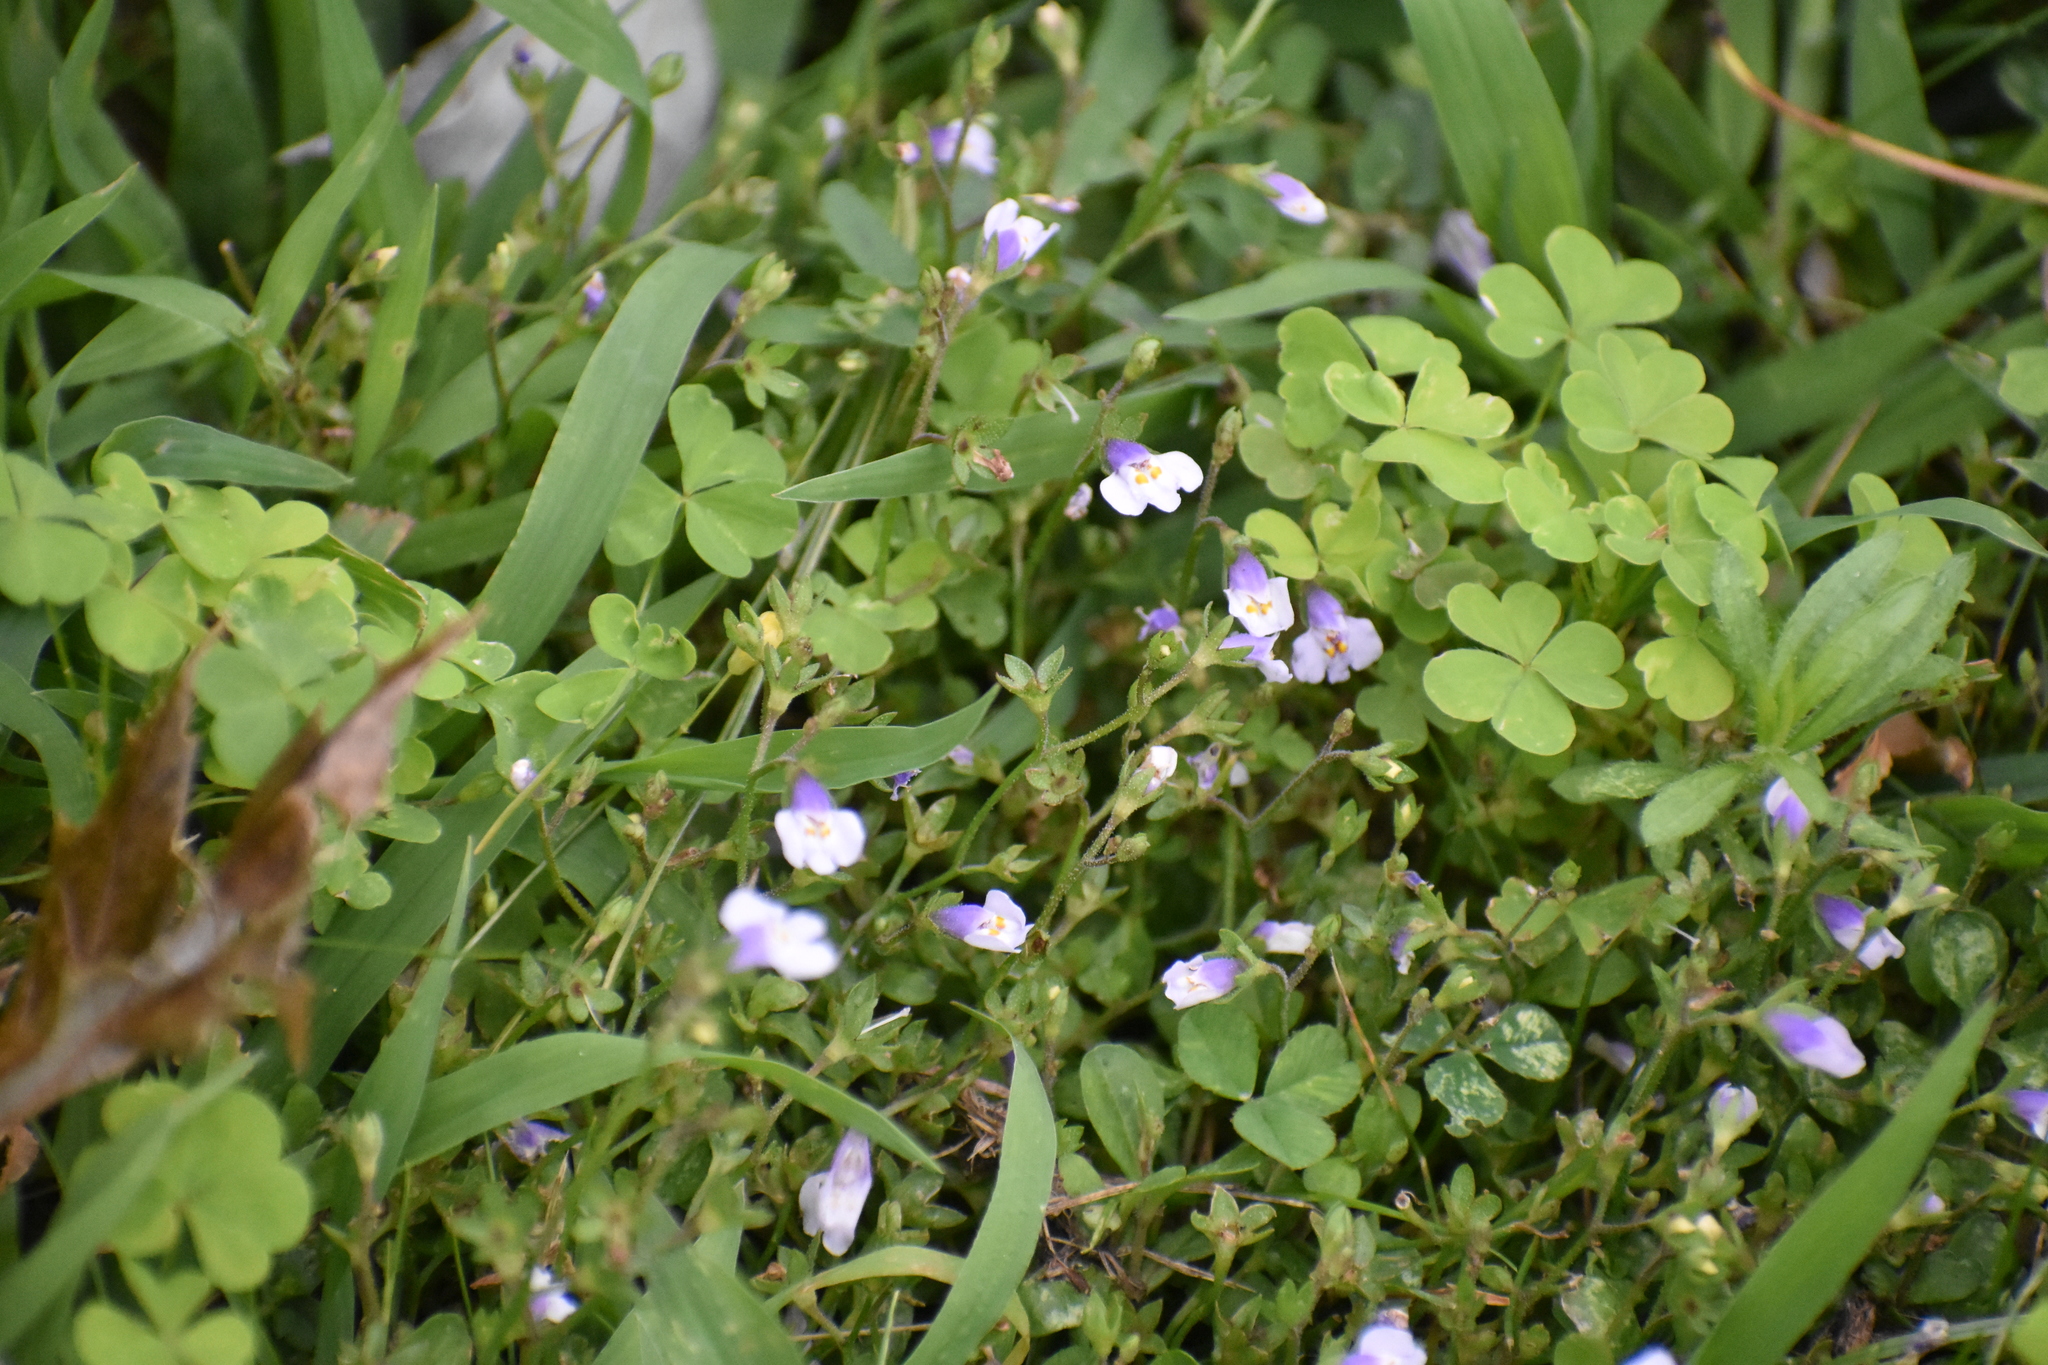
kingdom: Plantae
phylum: Tracheophyta
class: Magnoliopsida
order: Lamiales
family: Mazaceae
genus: Mazus
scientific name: Mazus pumilus
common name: Japanese mazus
